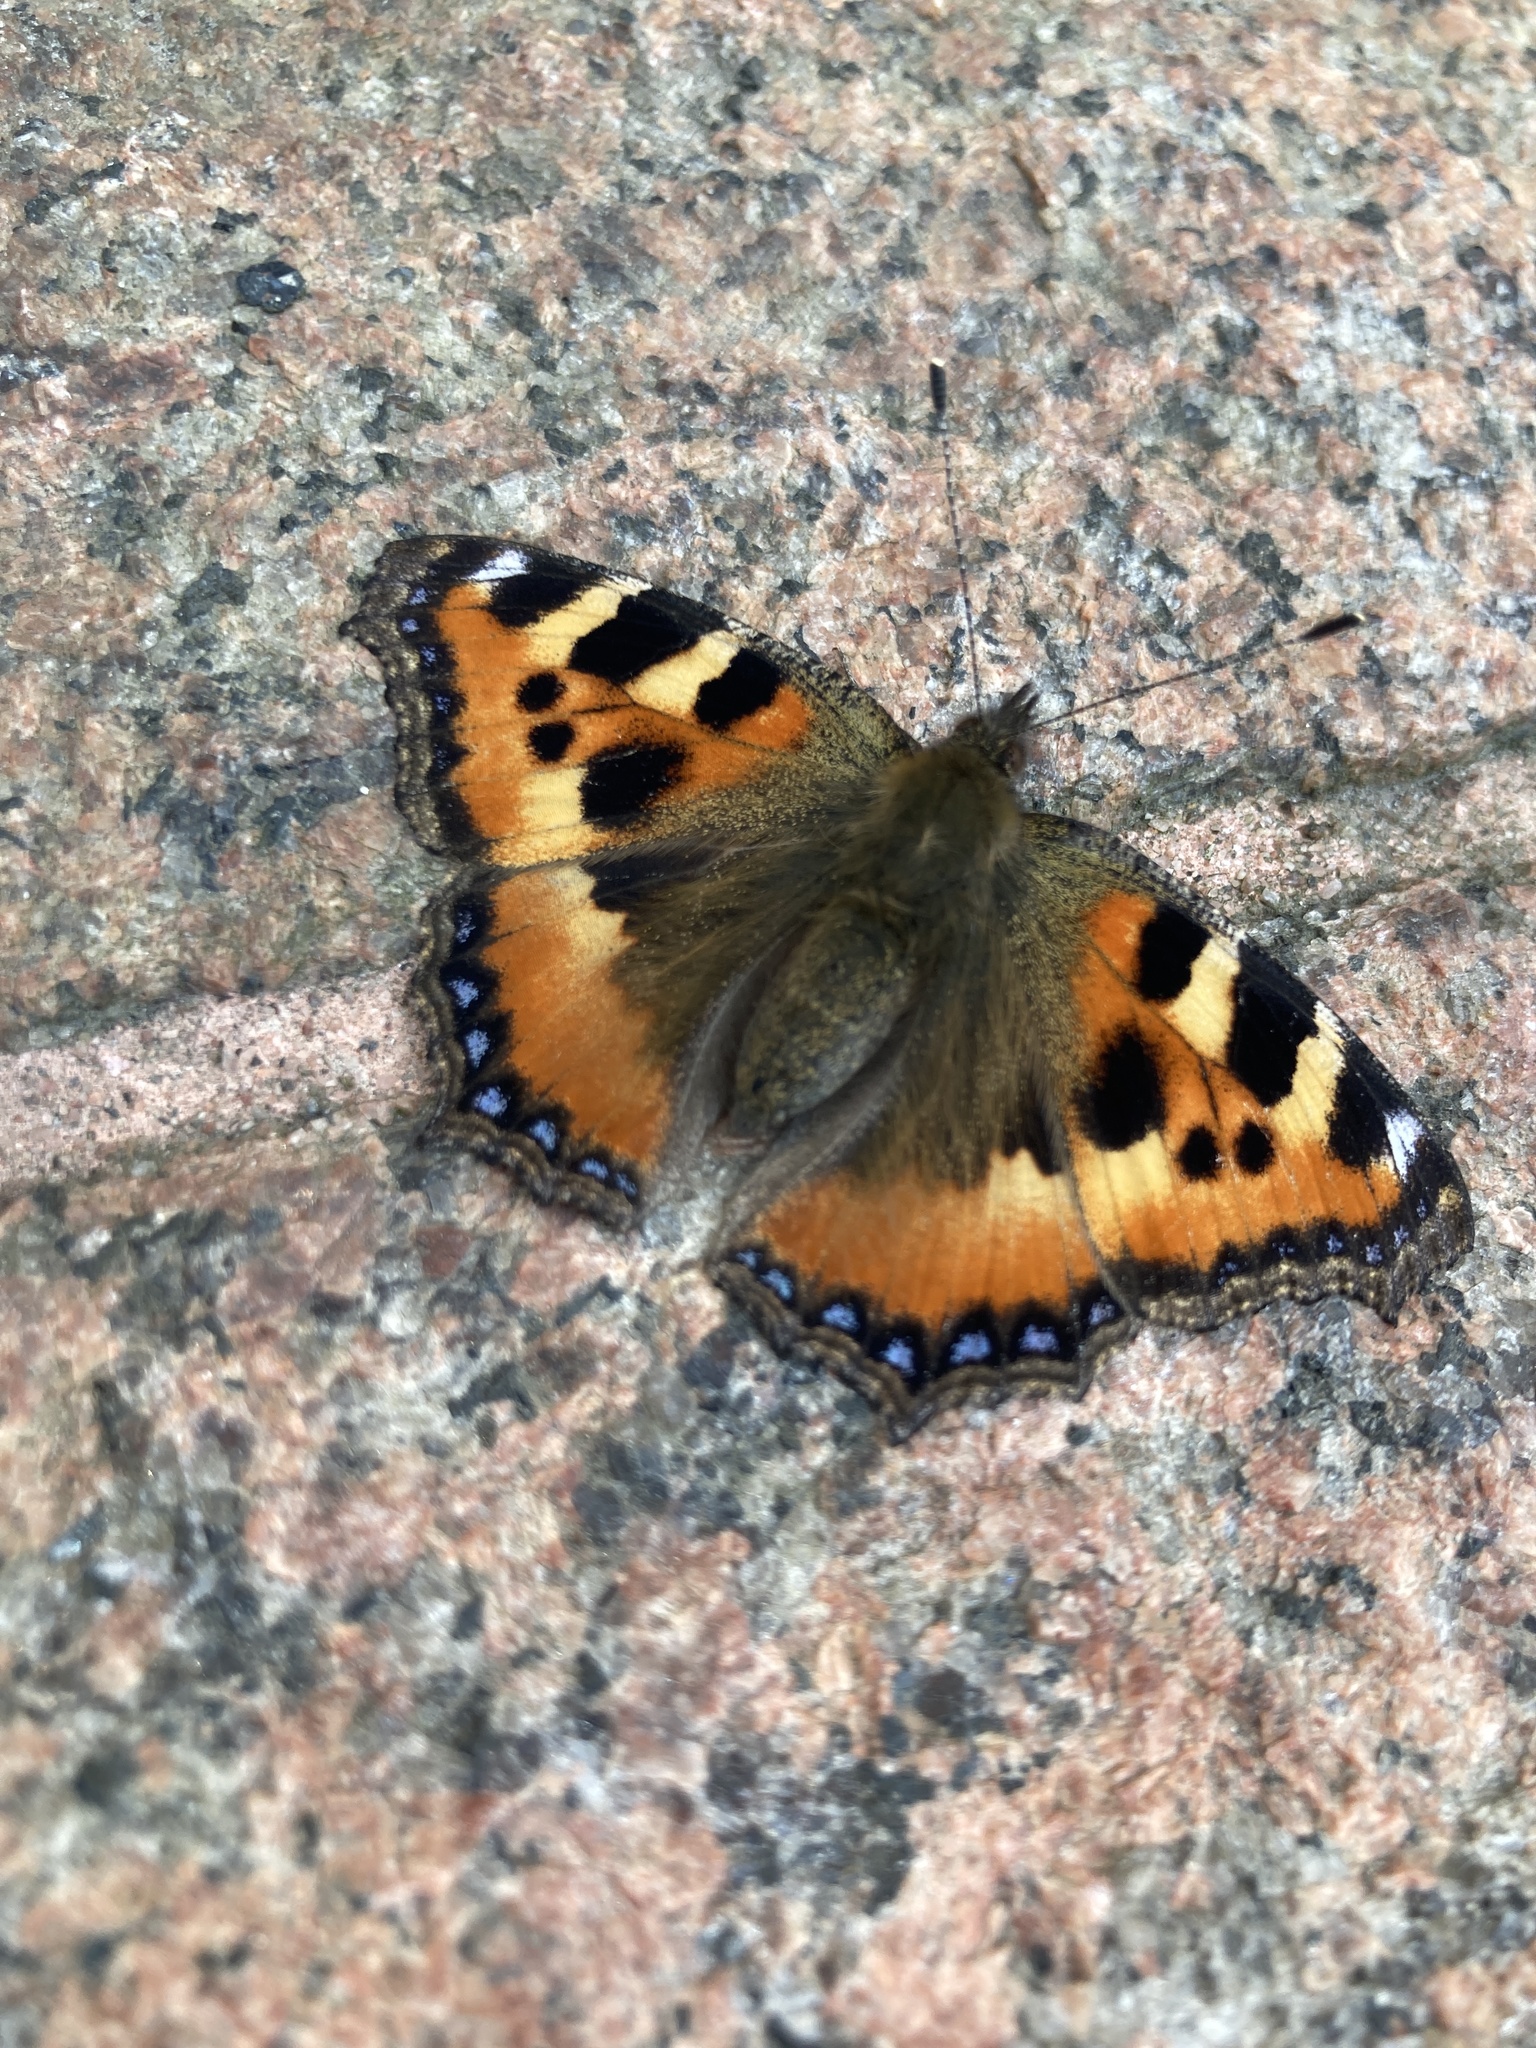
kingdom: Animalia
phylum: Arthropoda
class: Insecta
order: Lepidoptera
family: Nymphalidae
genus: Aglais
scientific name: Aglais urticae
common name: Small tortoiseshell
